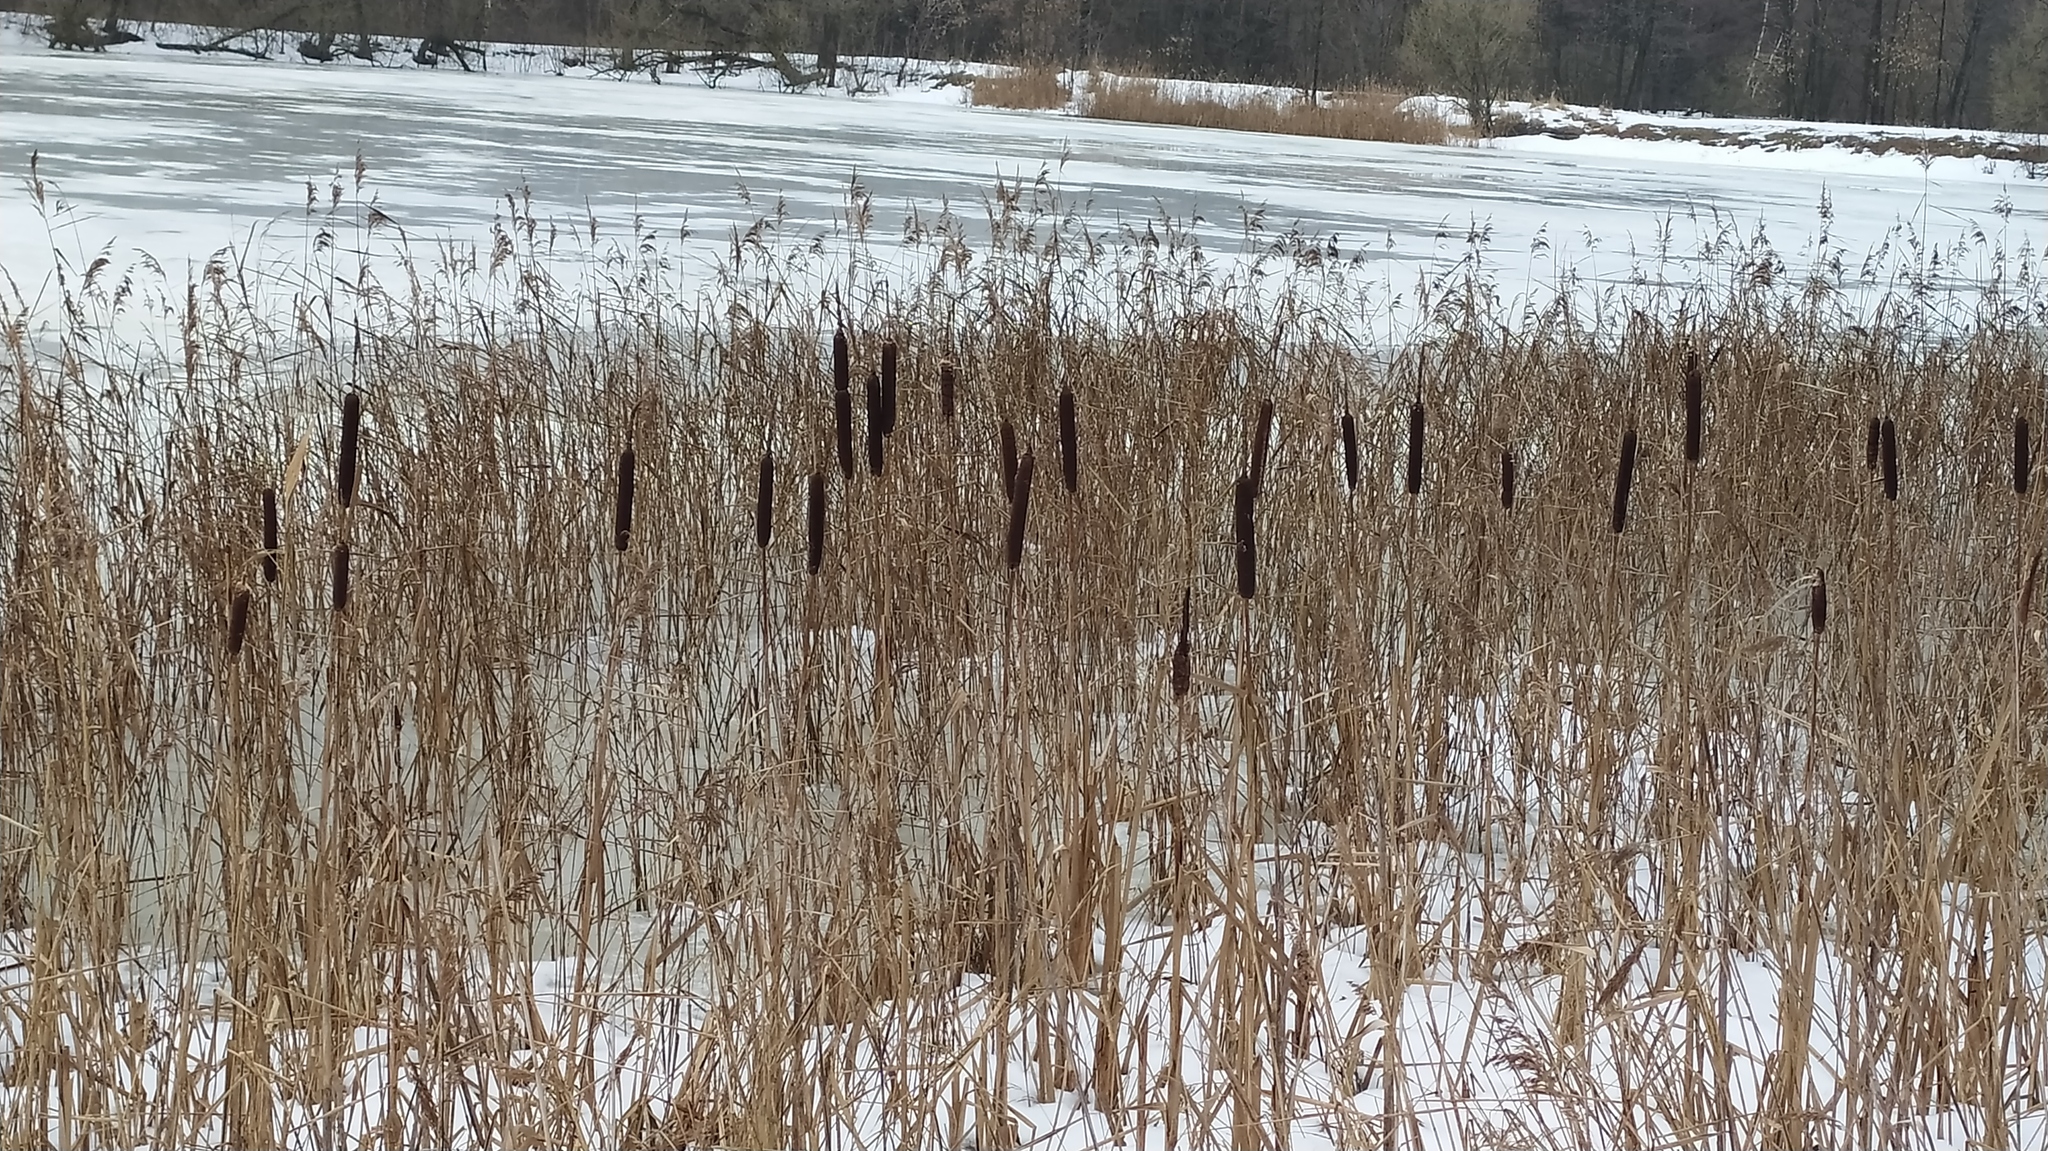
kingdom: Plantae
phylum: Tracheophyta
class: Liliopsida
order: Poales
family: Typhaceae
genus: Typha
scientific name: Typha latifolia
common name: Broadleaf cattail
